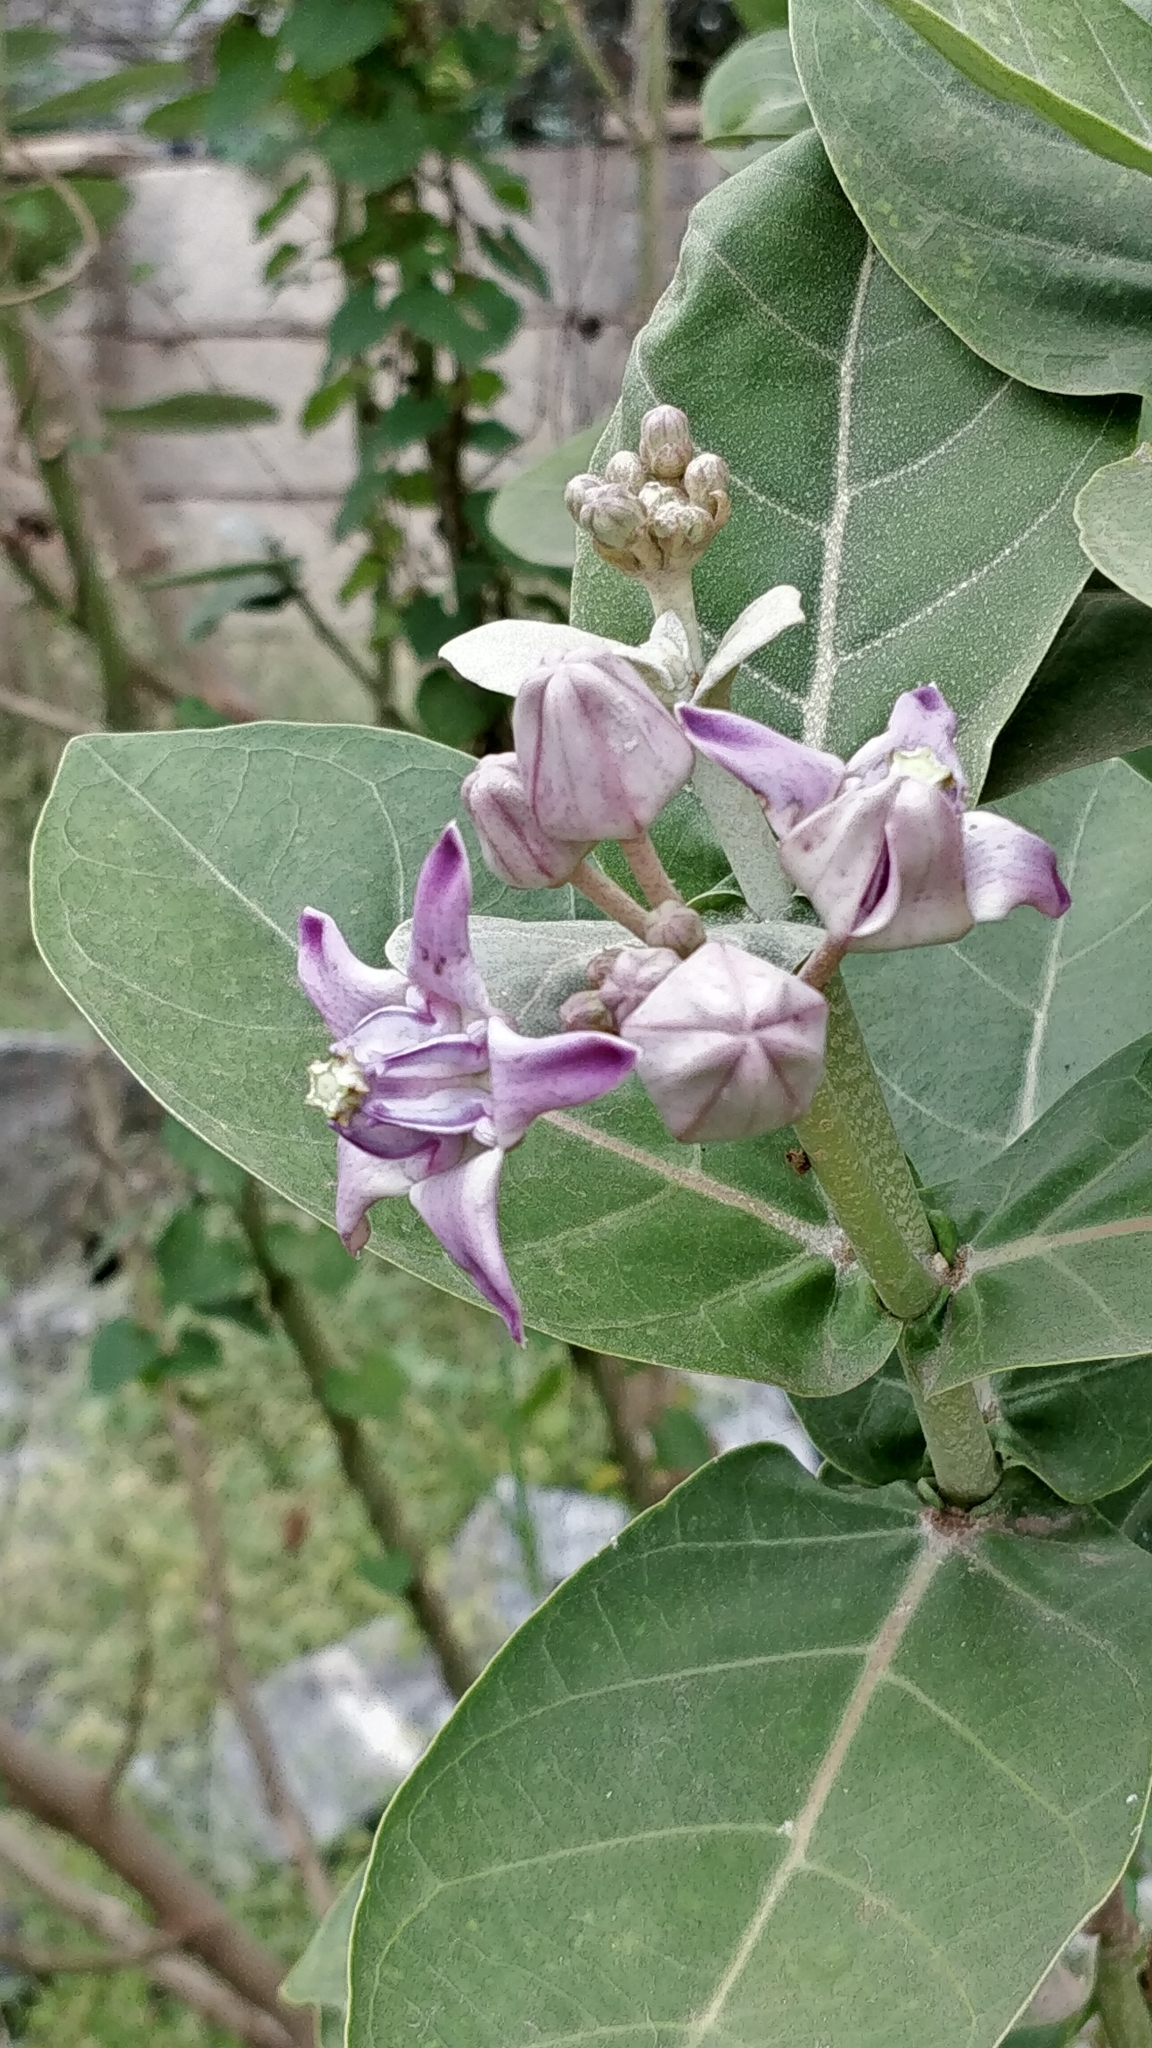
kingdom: Plantae
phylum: Tracheophyta
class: Magnoliopsida
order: Gentianales
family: Apocynaceae
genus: Calotropis
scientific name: Calotropis gigantea
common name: Crown flower
